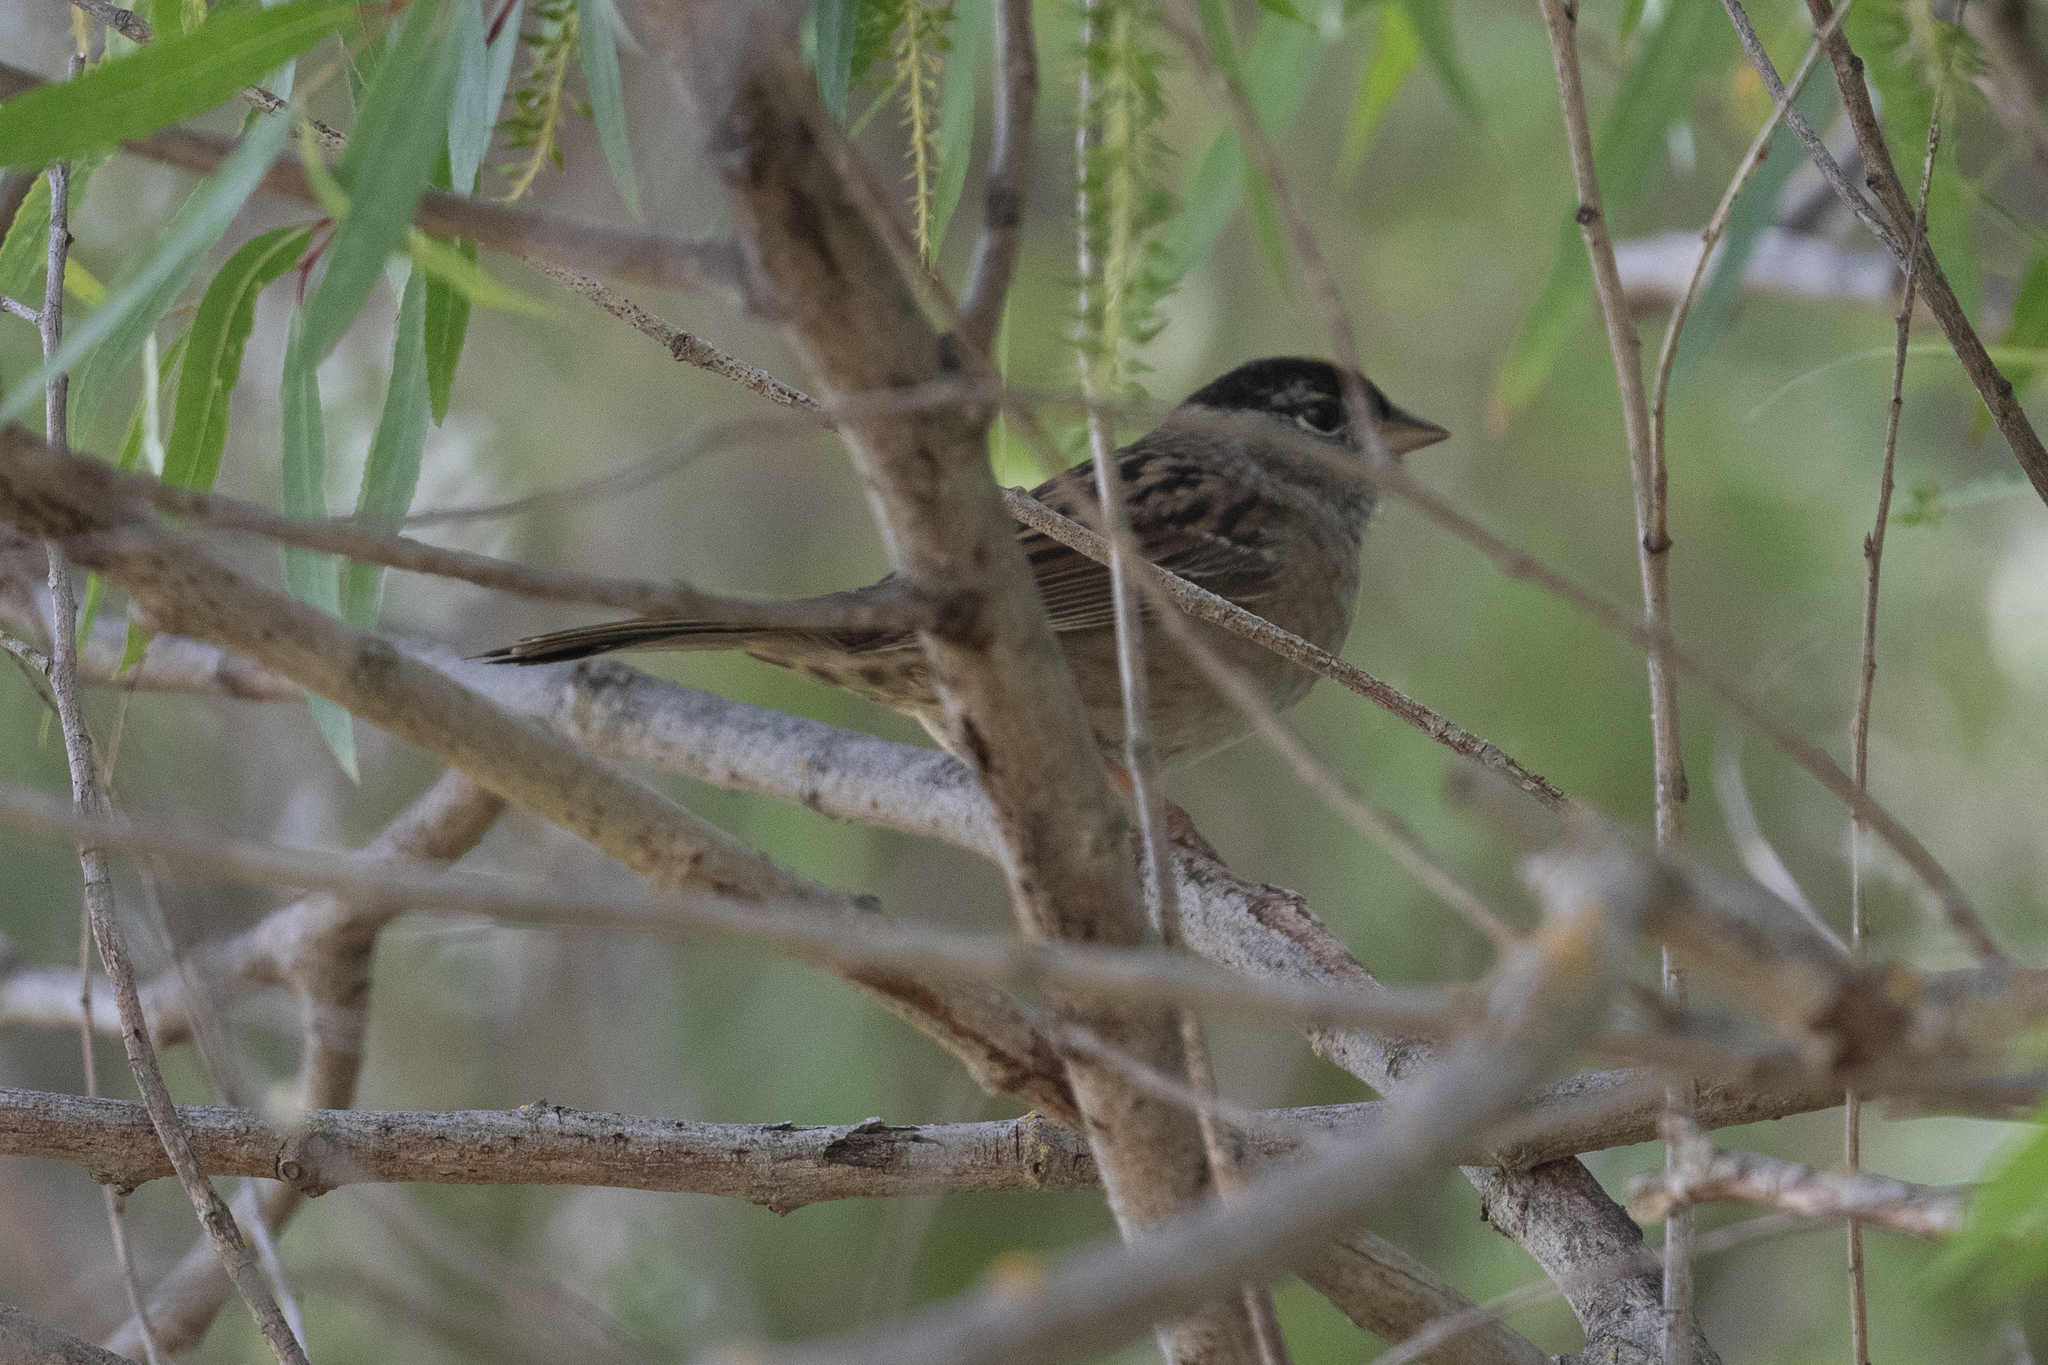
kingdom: Animalia
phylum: Chordata
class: Aves
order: Passeriformes
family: Passerellidae
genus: Zonotrichia
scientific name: Zonotrichia atricapilla
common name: Golden-crowned sparrow
